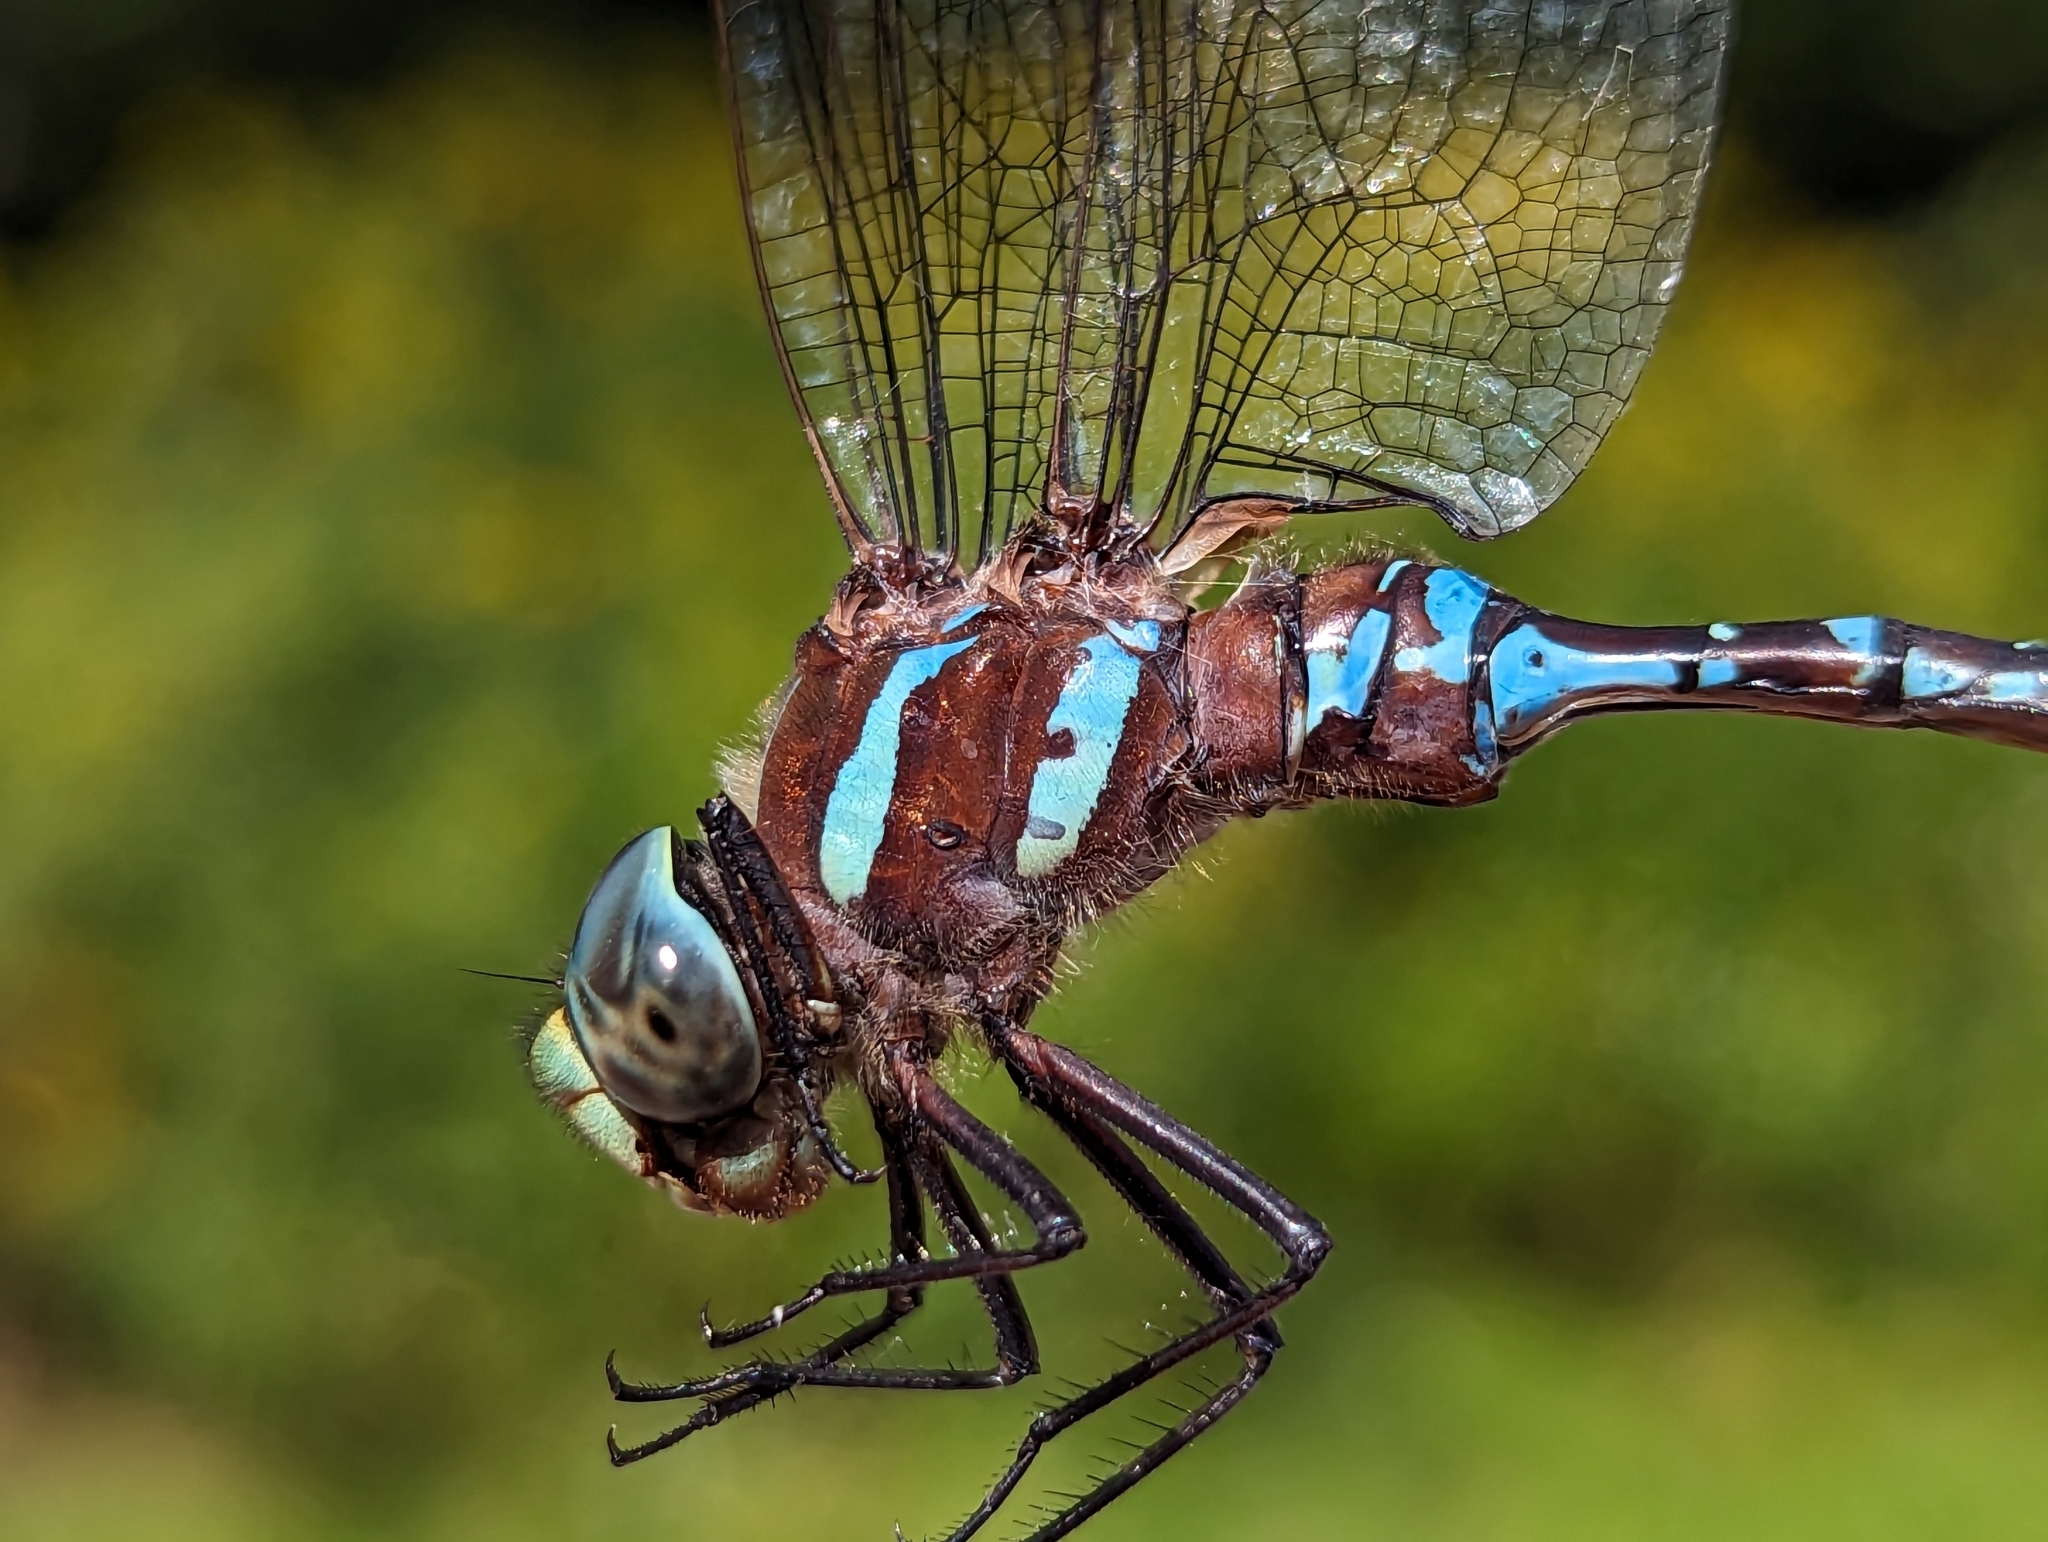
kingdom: Animalia
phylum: Arthropoda
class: Insecta
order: Odonata
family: Aeshnidae
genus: Aeshna
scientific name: Aeshna tuberculifera
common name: Aeschne à tubercules
